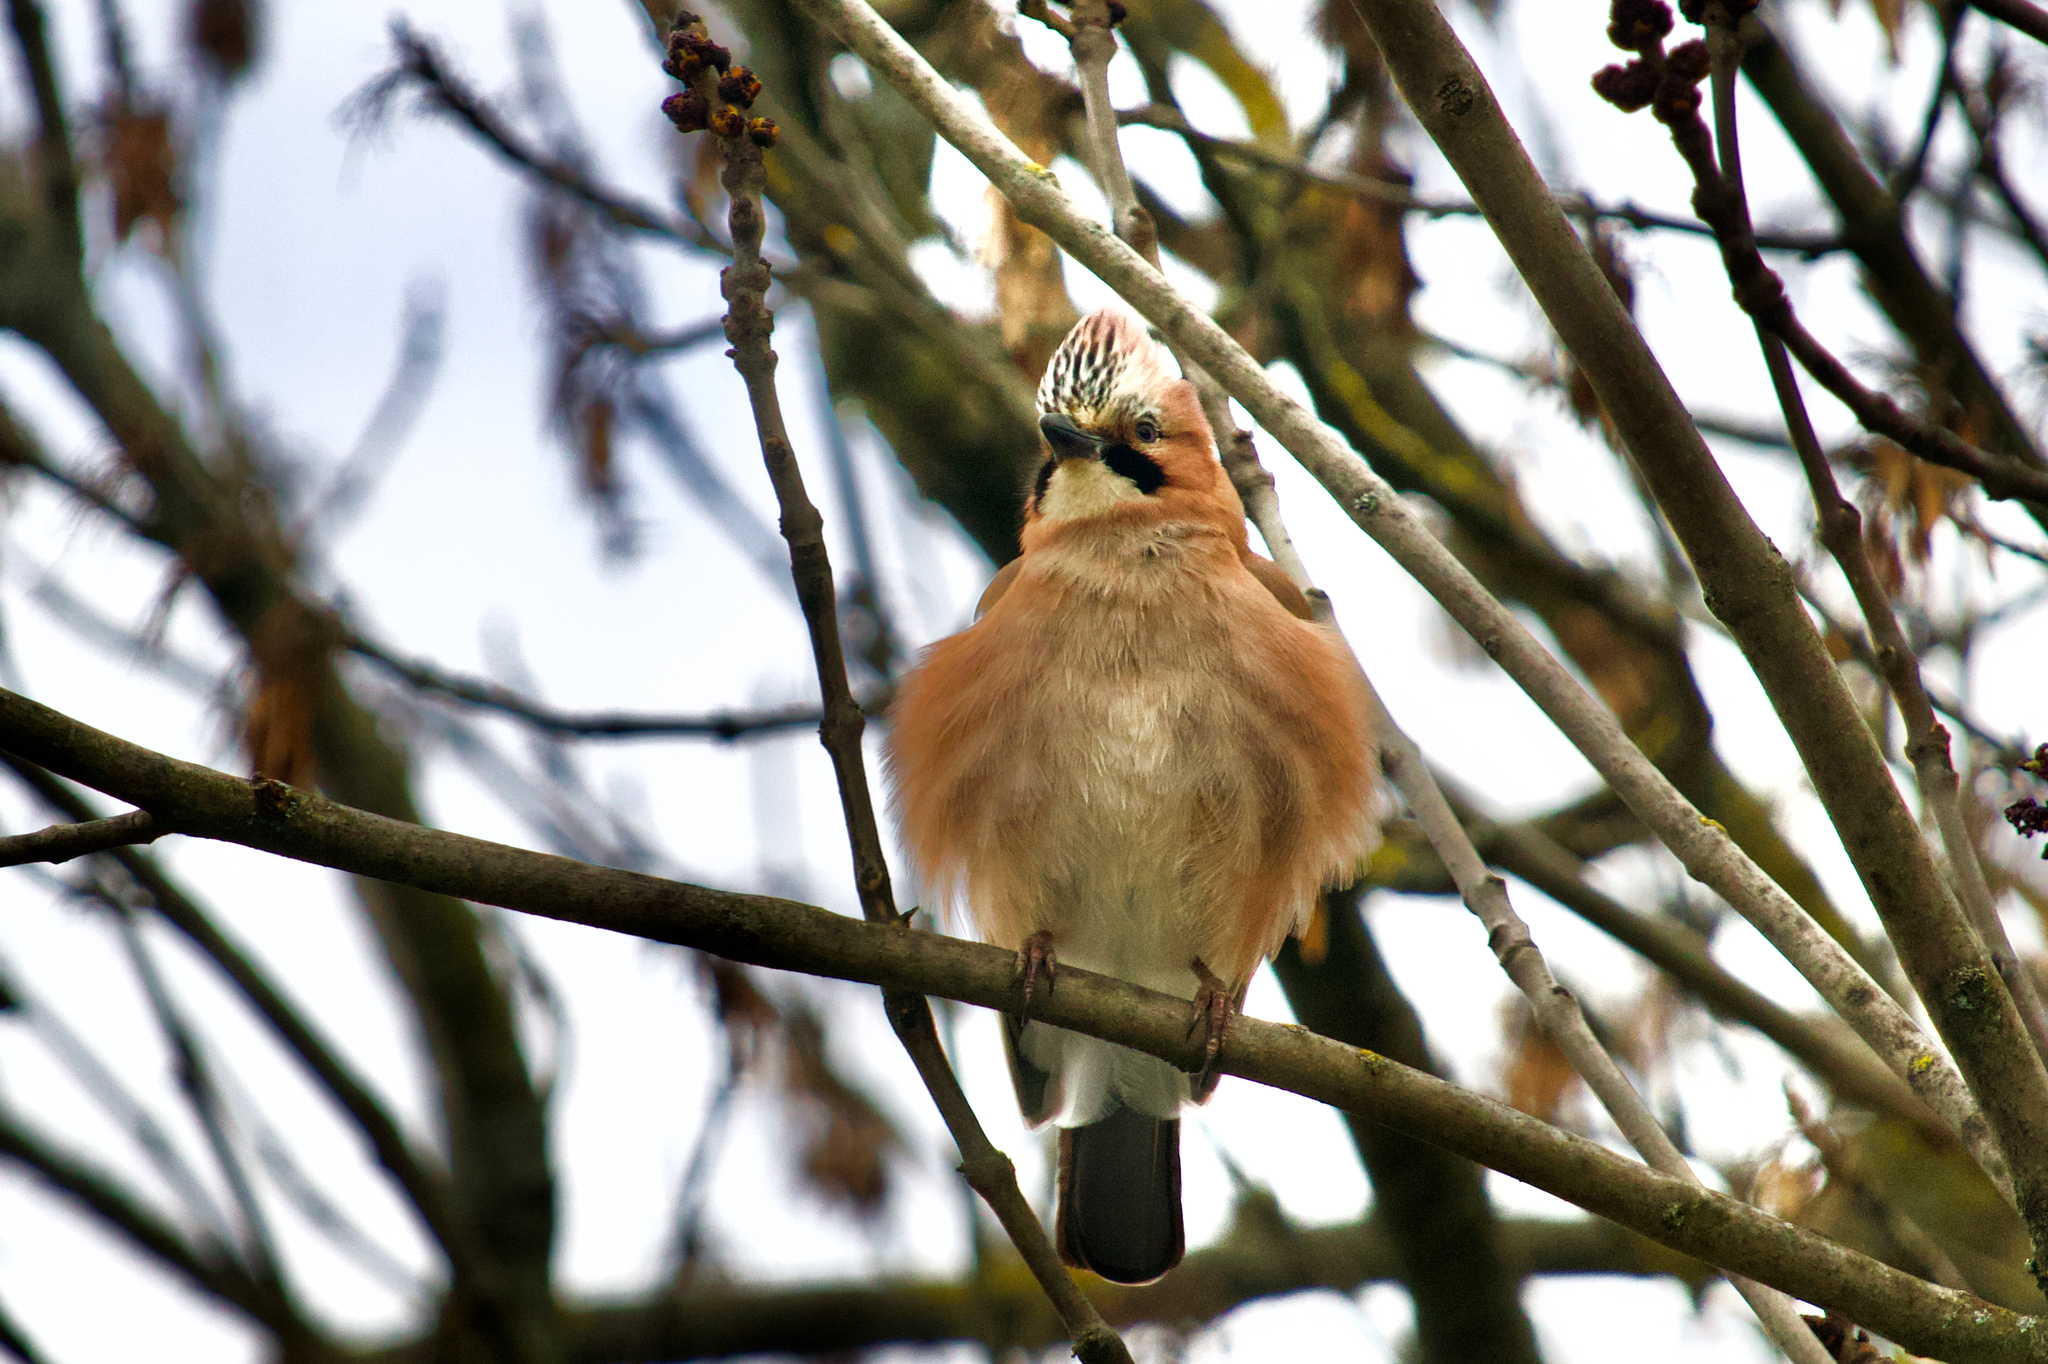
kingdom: Animalia
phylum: Chordata
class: Aves
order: Passeriformes
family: Corvidae
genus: Garrulus
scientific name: Garrulus glandarius
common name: Eurasian jay
